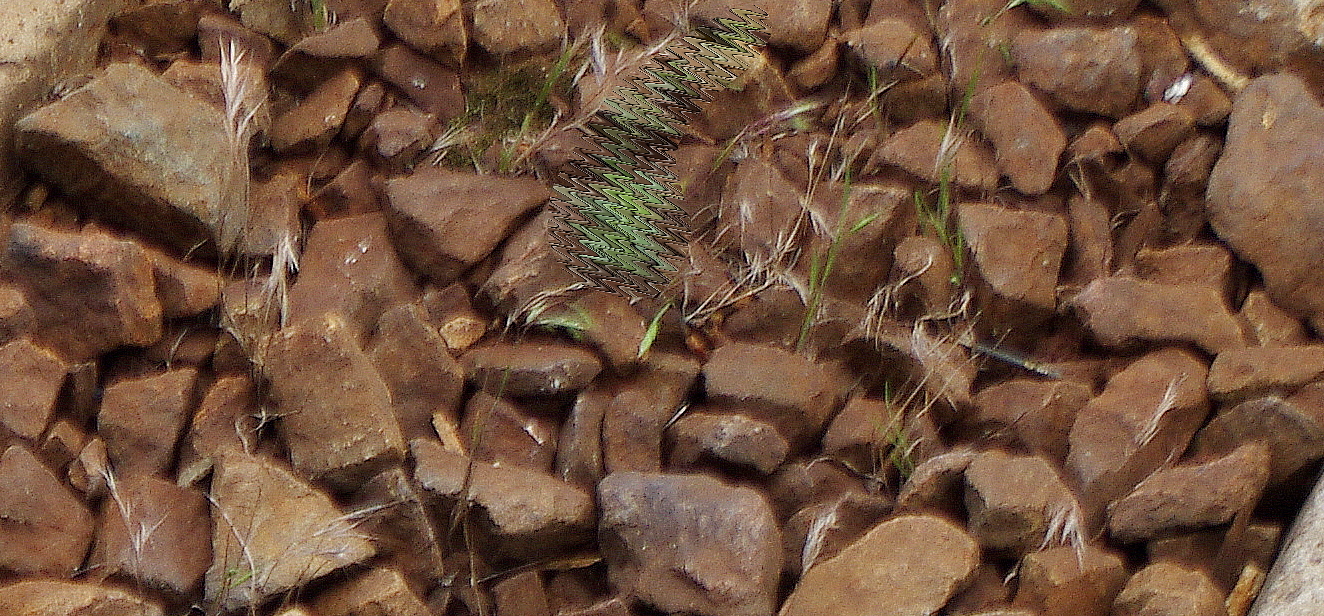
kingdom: Plantae
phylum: Tracheophyta
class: Liliopsida
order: Poales
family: Poaceae
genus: Bromus
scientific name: Bromus tectorum
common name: Cheatgrass
